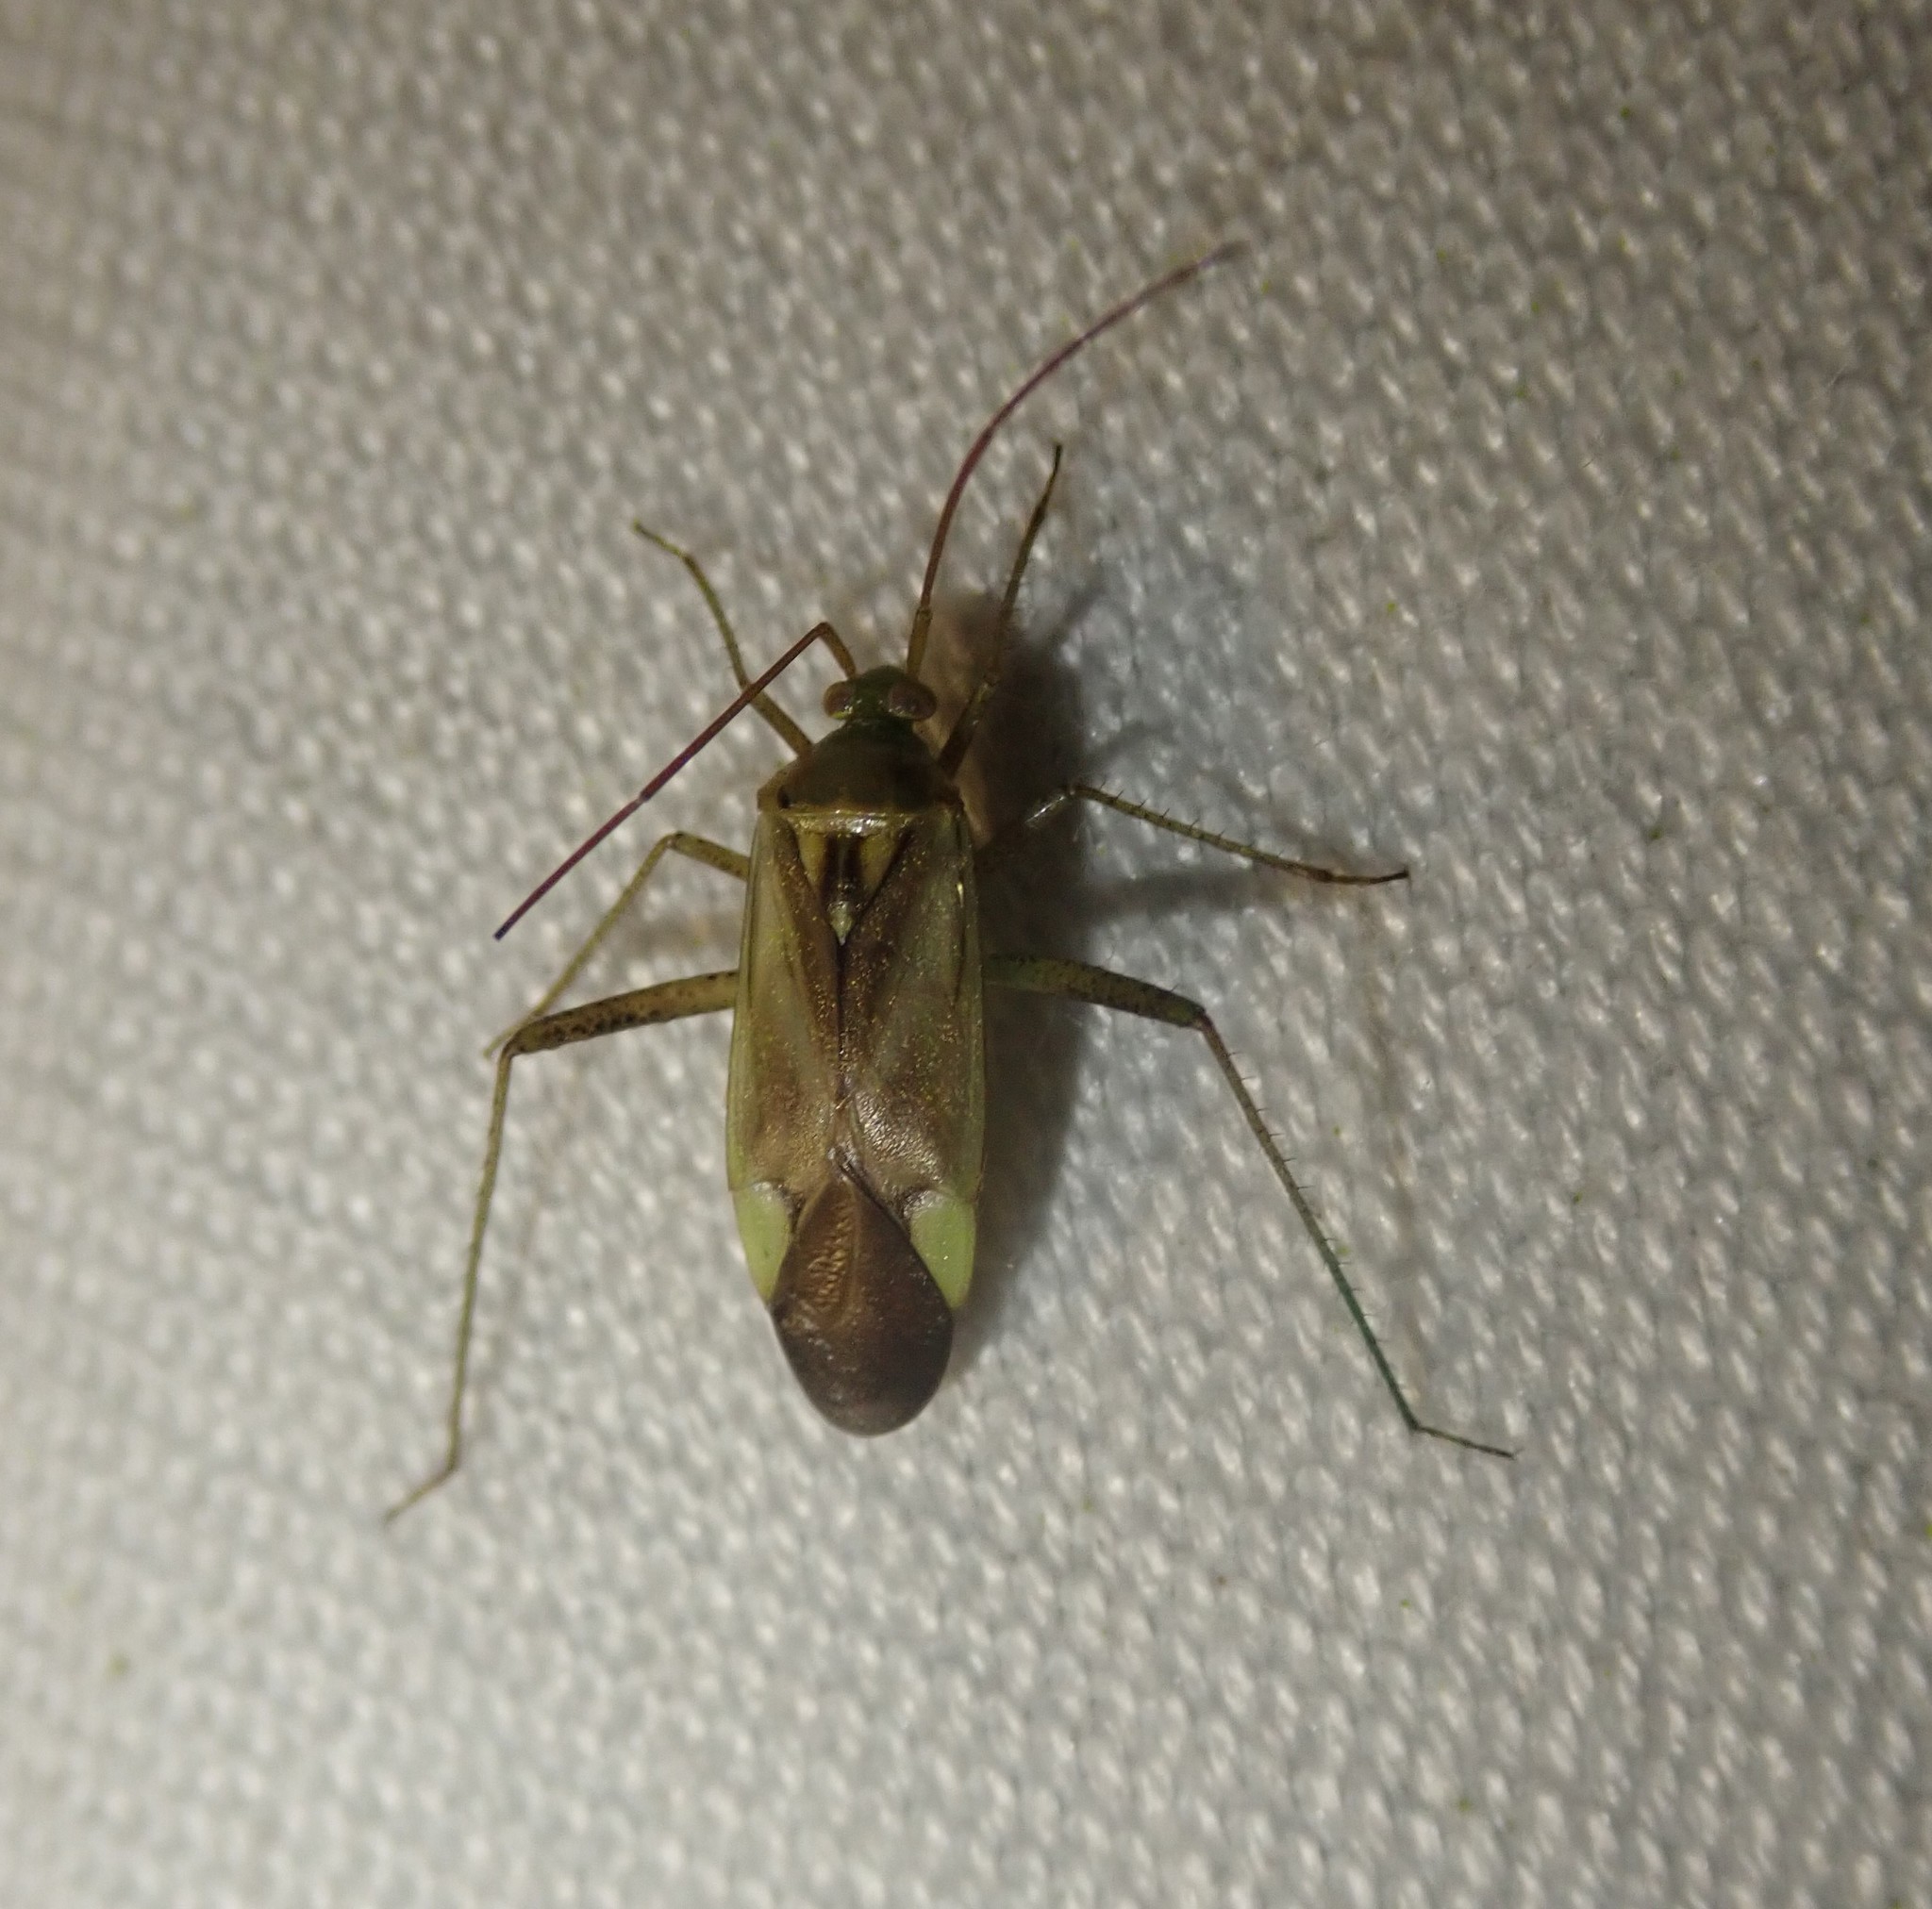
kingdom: Animalia
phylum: Arthropoda
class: Insecta
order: Hemiptera
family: Miridae
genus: Adelphocoris
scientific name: Adelphocoris lineolatus
